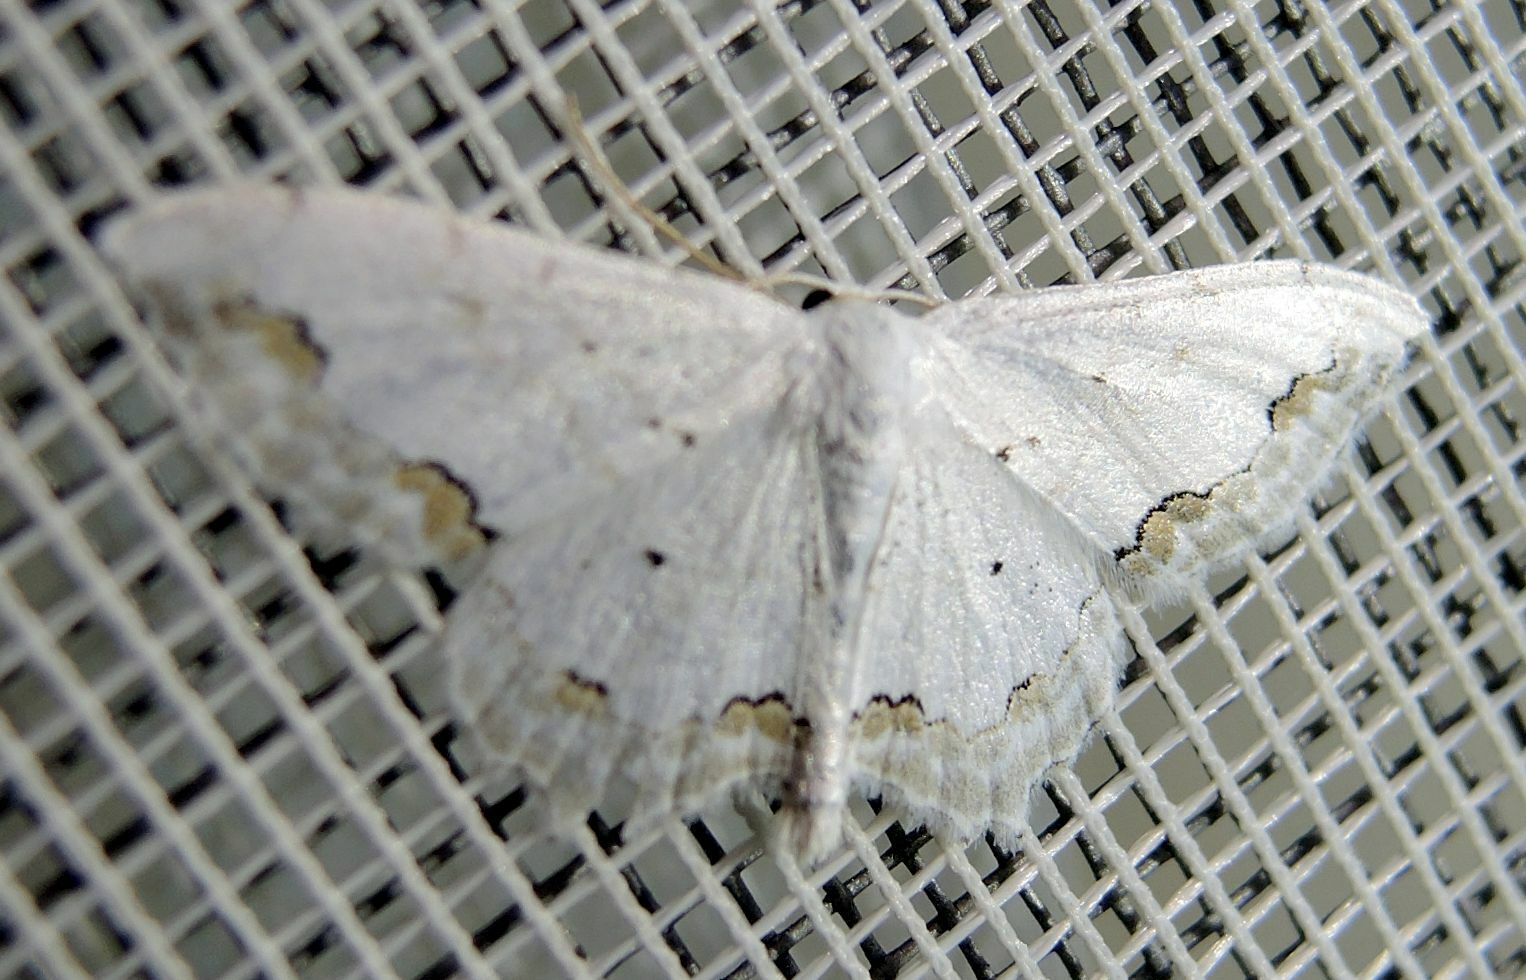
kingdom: Animalia
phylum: Arthropoda
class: Insecta
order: Lepidoptera
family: Geometridae
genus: Scopula
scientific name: Scopula ornata
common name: Lace border
